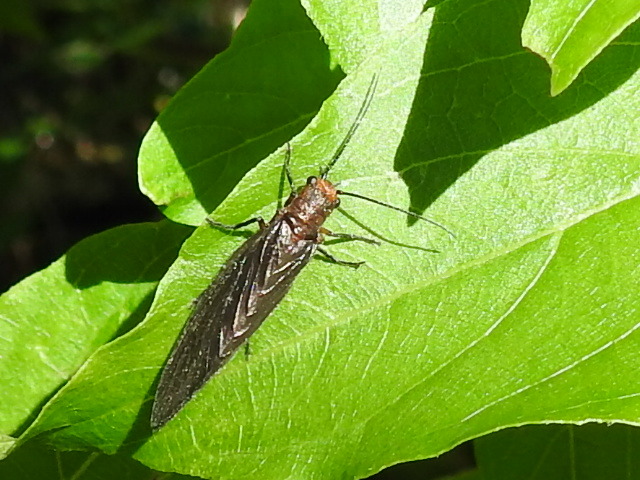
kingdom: Animalia
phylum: Arthropoda
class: Insecta
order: Megaloptera
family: Sialidae
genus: Protosialis
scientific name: Protosialis americana
